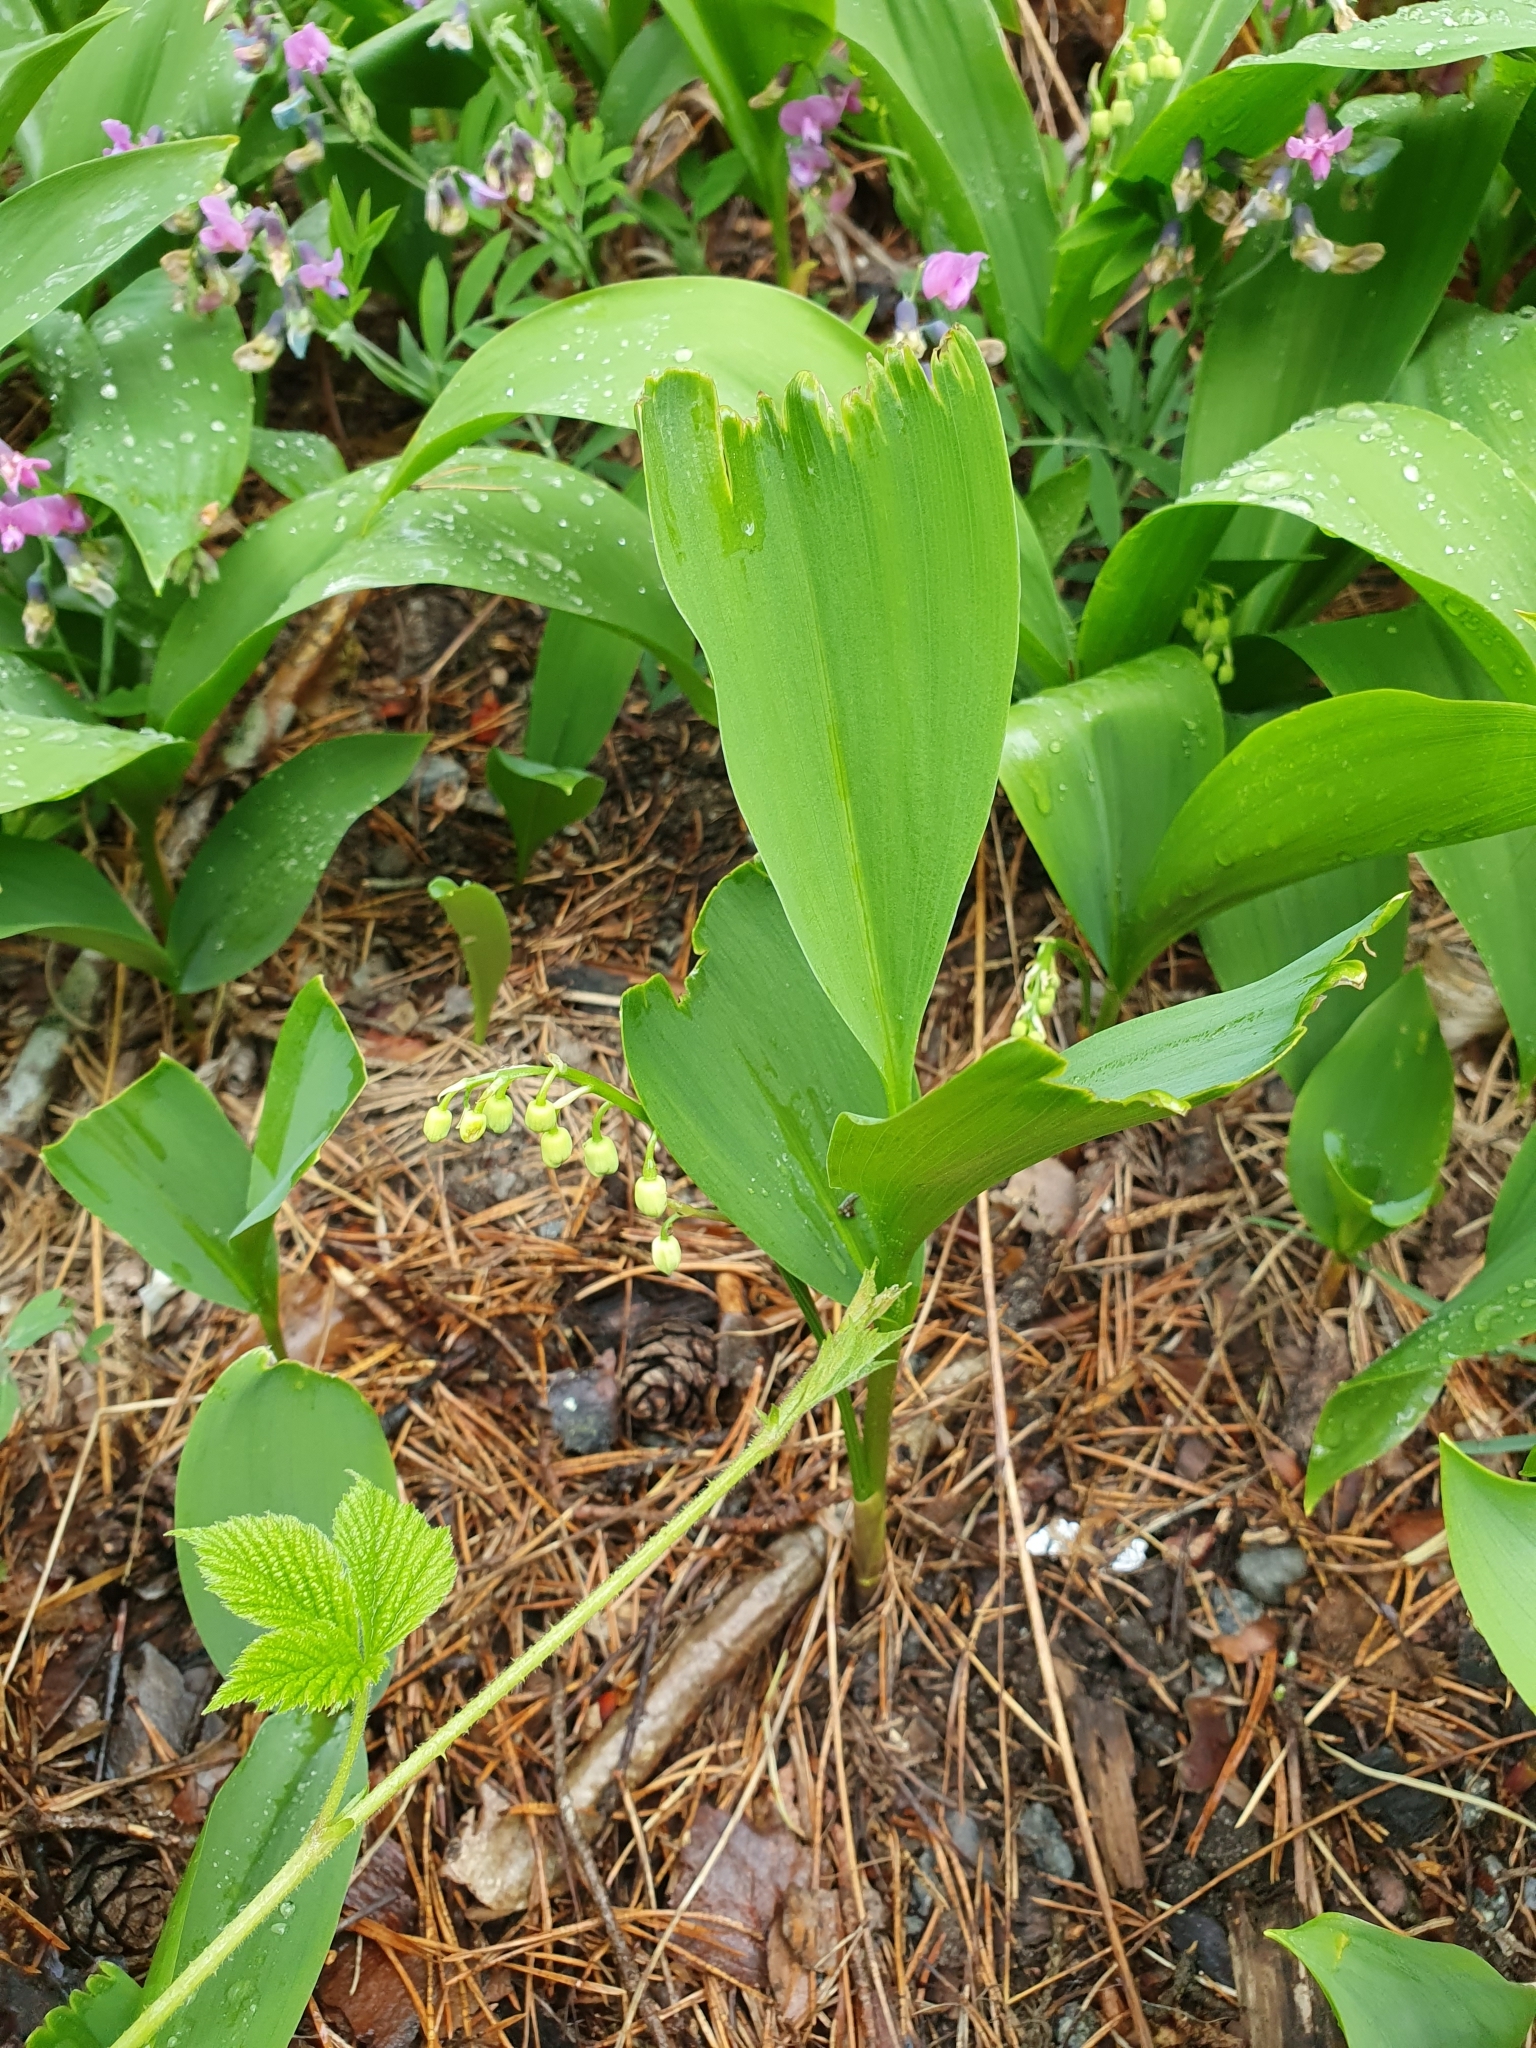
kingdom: Plantae
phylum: Tracheophyta
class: Liliopsida
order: Asparagales
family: Asparagaceae
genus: Convallaria
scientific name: Convallaria majalis
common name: Lily-of-the-valley
